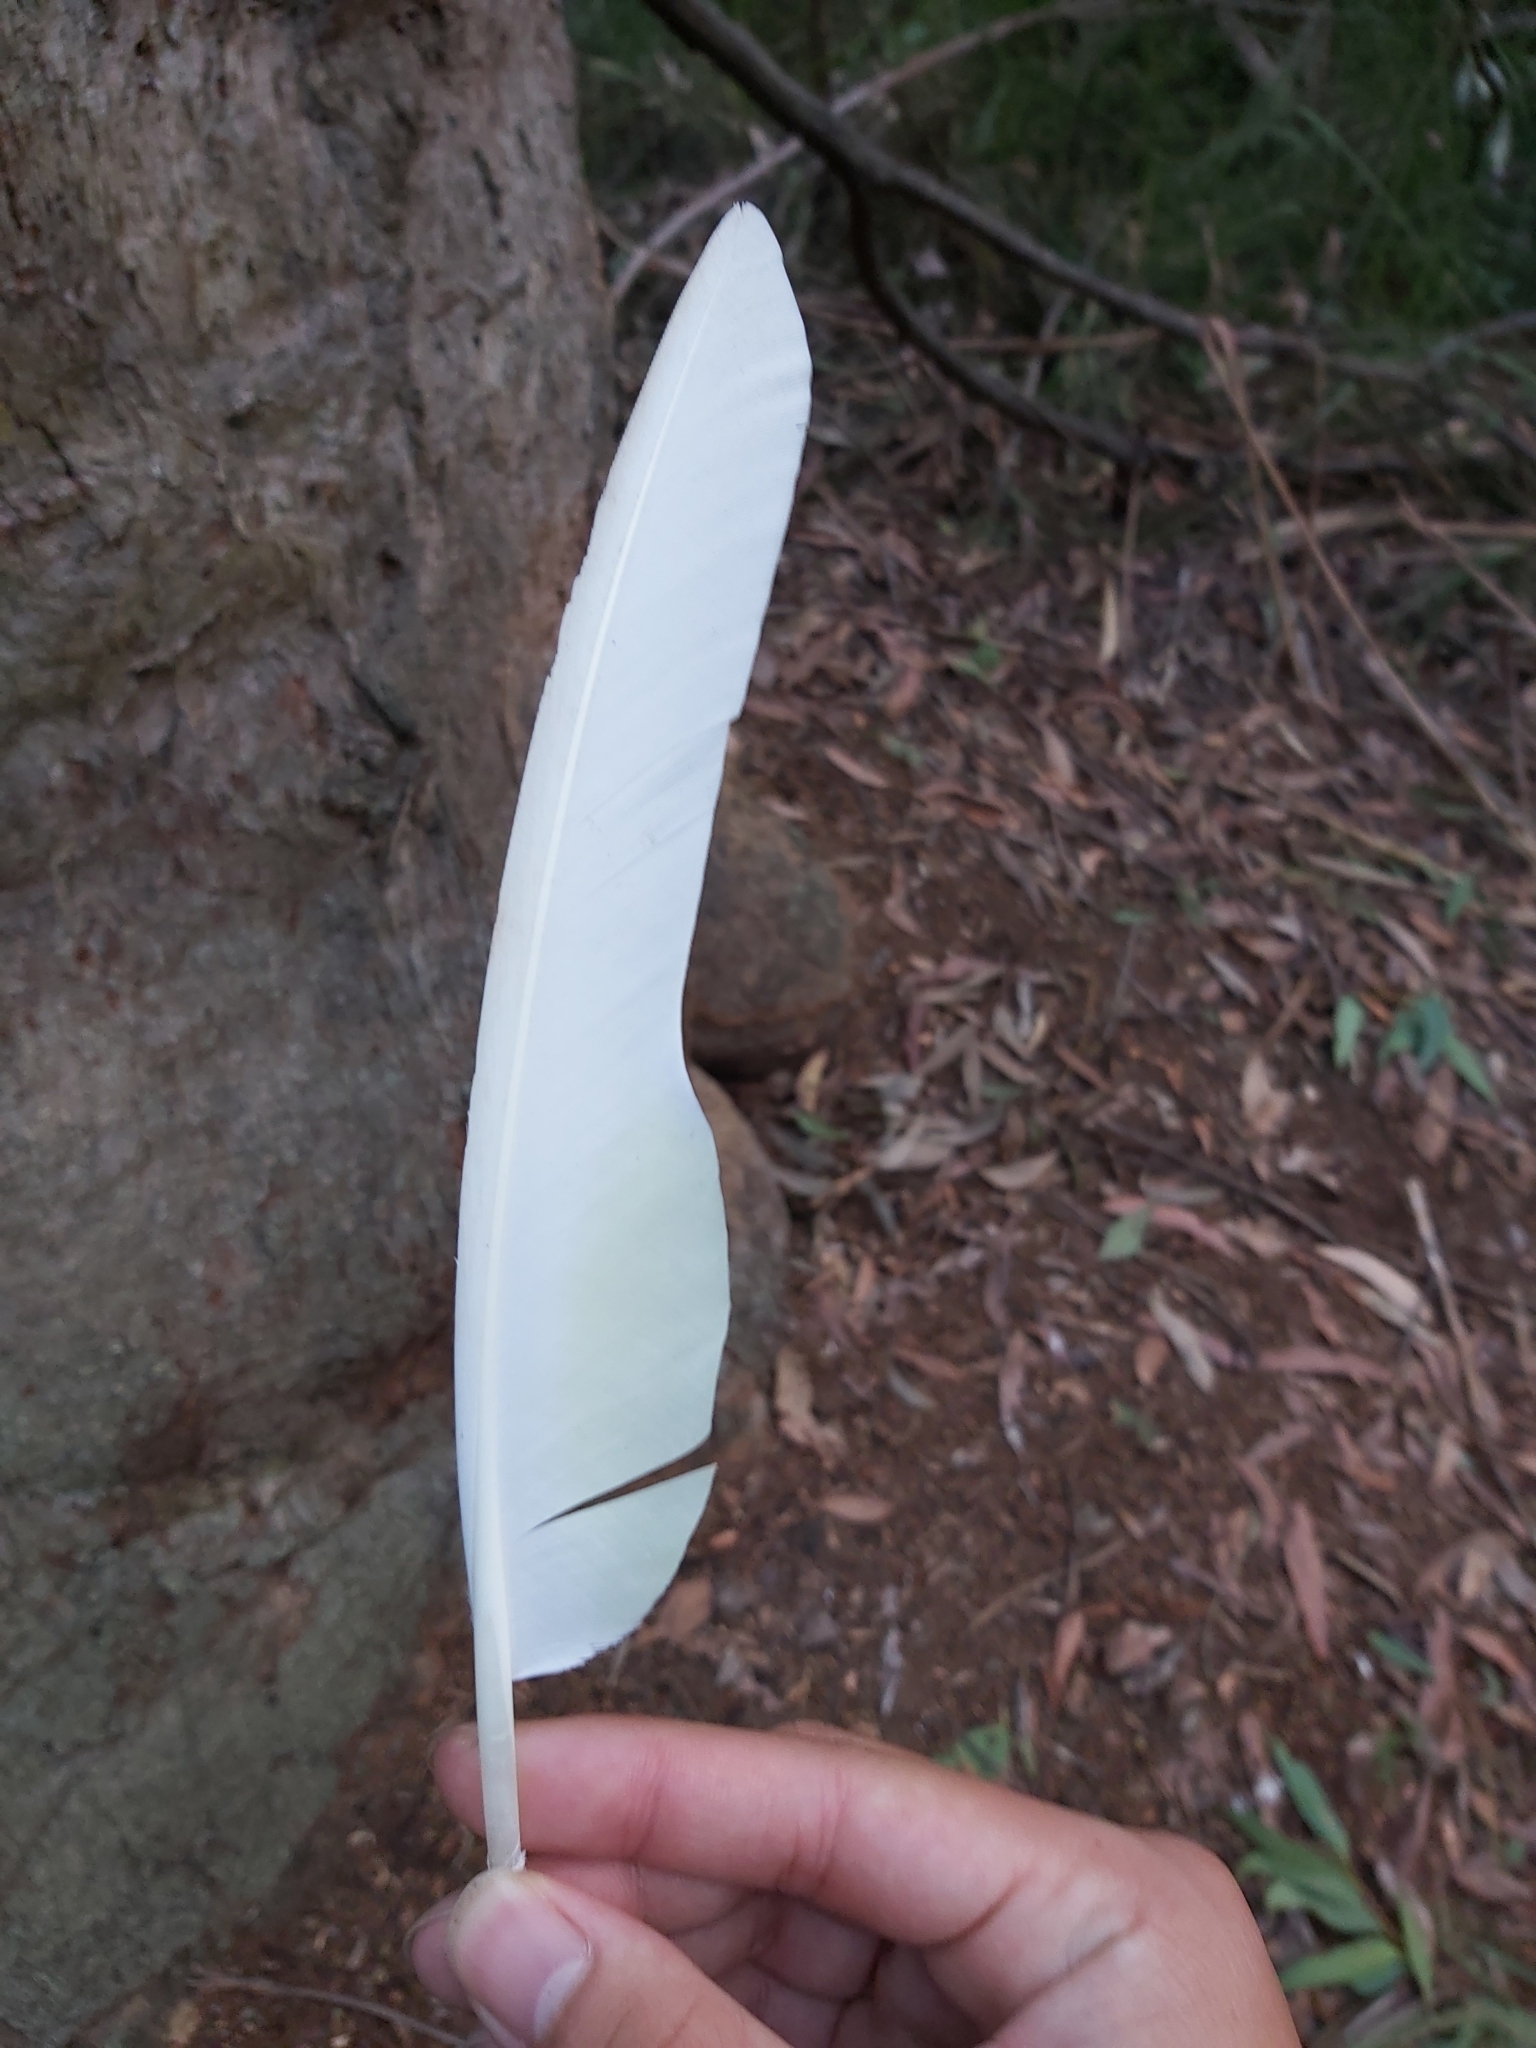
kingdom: Animalia
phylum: Chordata
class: Aves
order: Psittaciformes
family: Psittacidae
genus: Cacatua
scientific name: Cacatua galerita
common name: Sulphur-crested cockatoo
